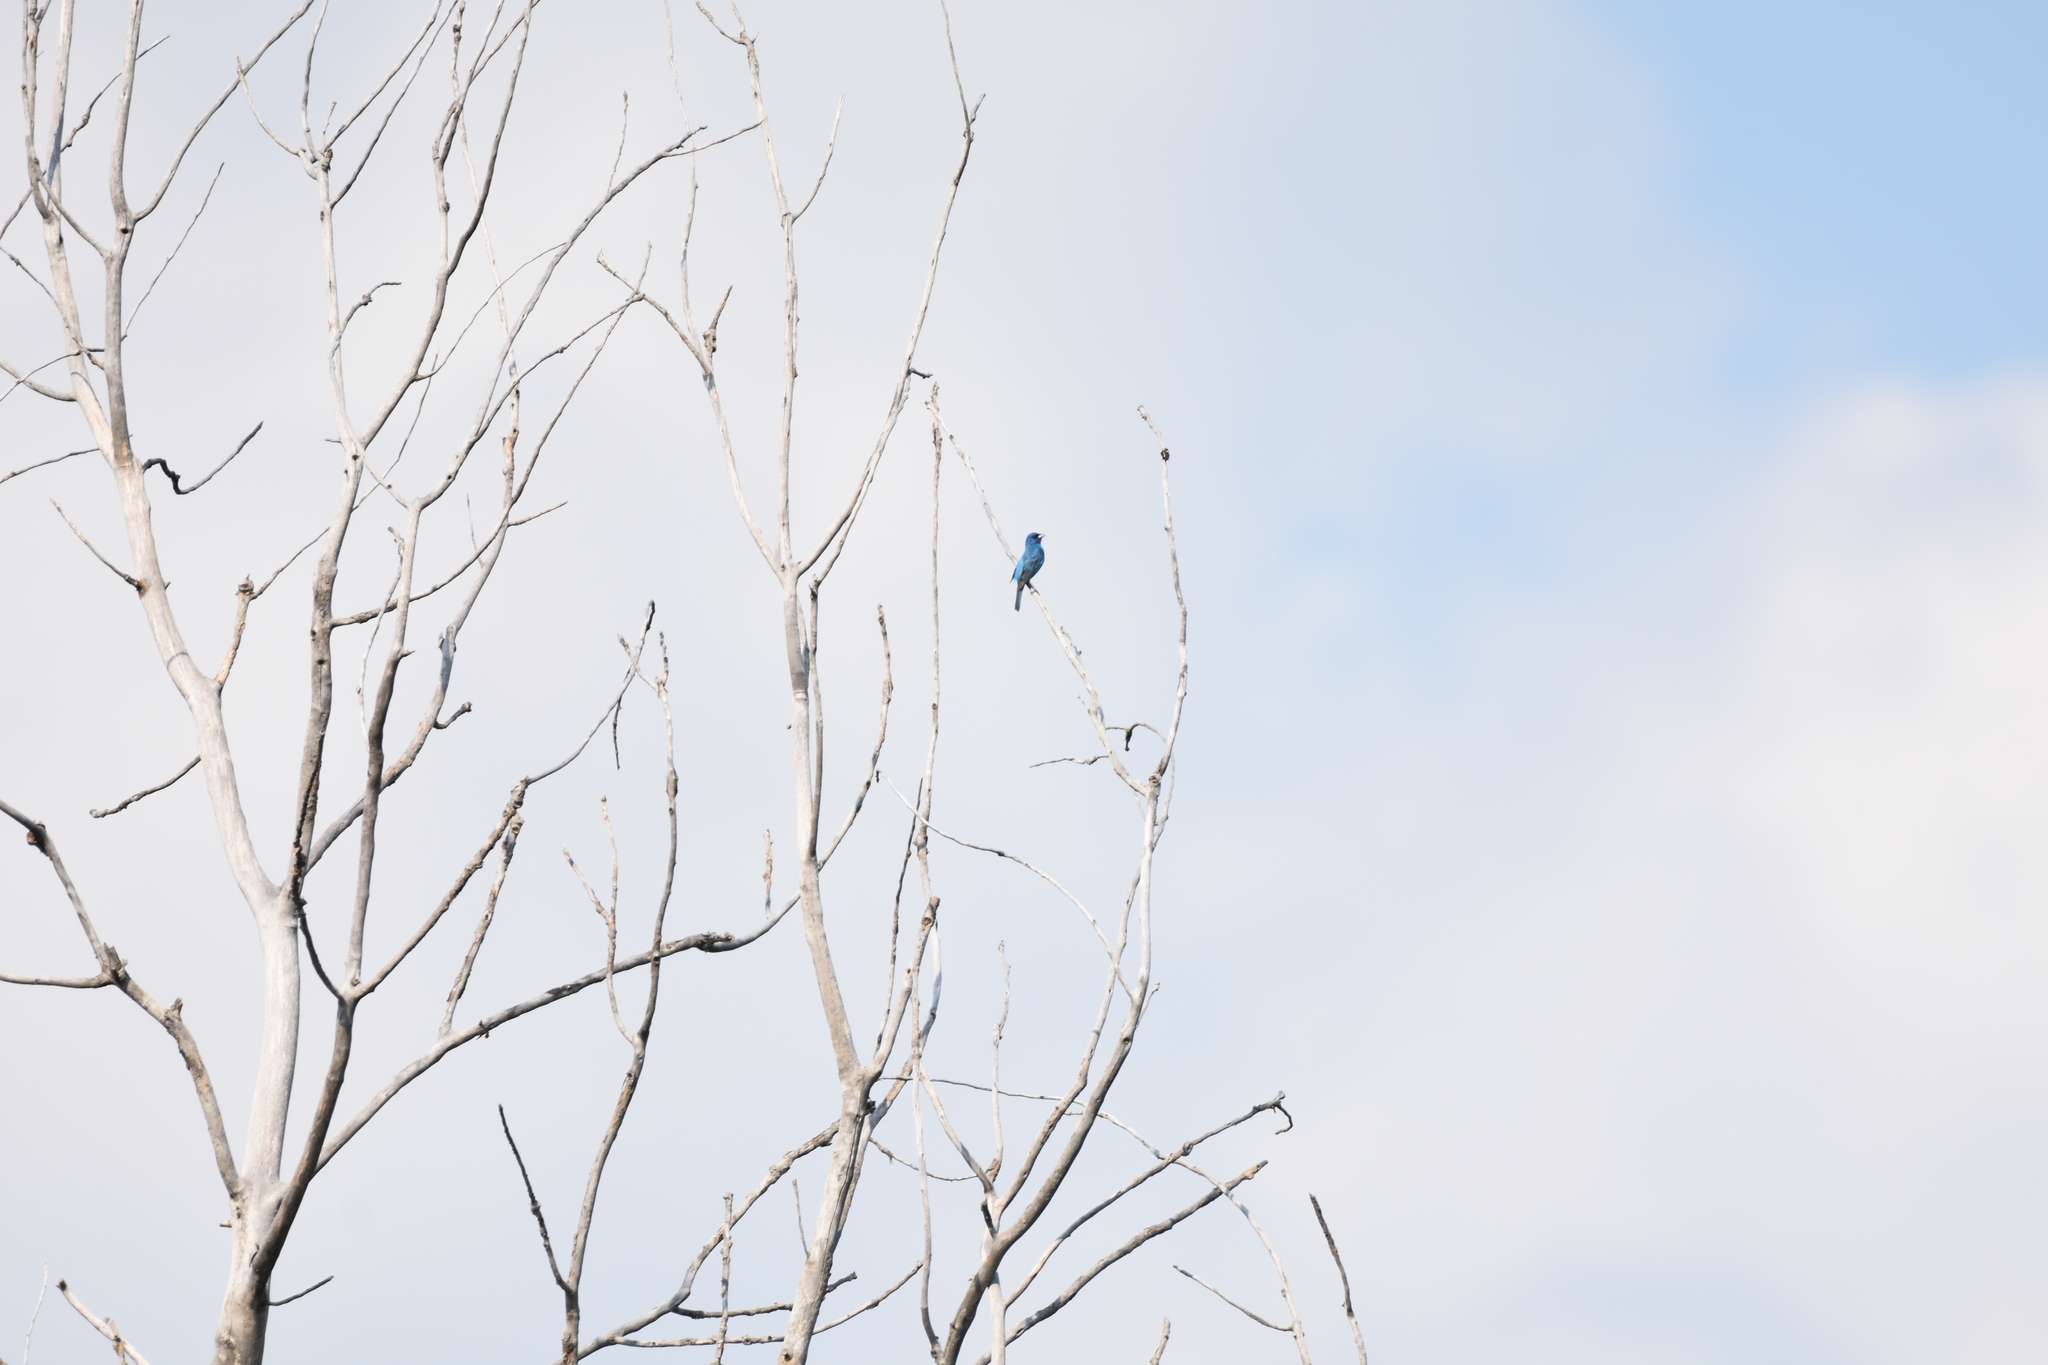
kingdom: Animalia
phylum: Chordata
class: Aves
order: Passeriformes
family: Cardinalidae
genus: Passerina
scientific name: Passerina cyanea
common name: Indigo bunting
